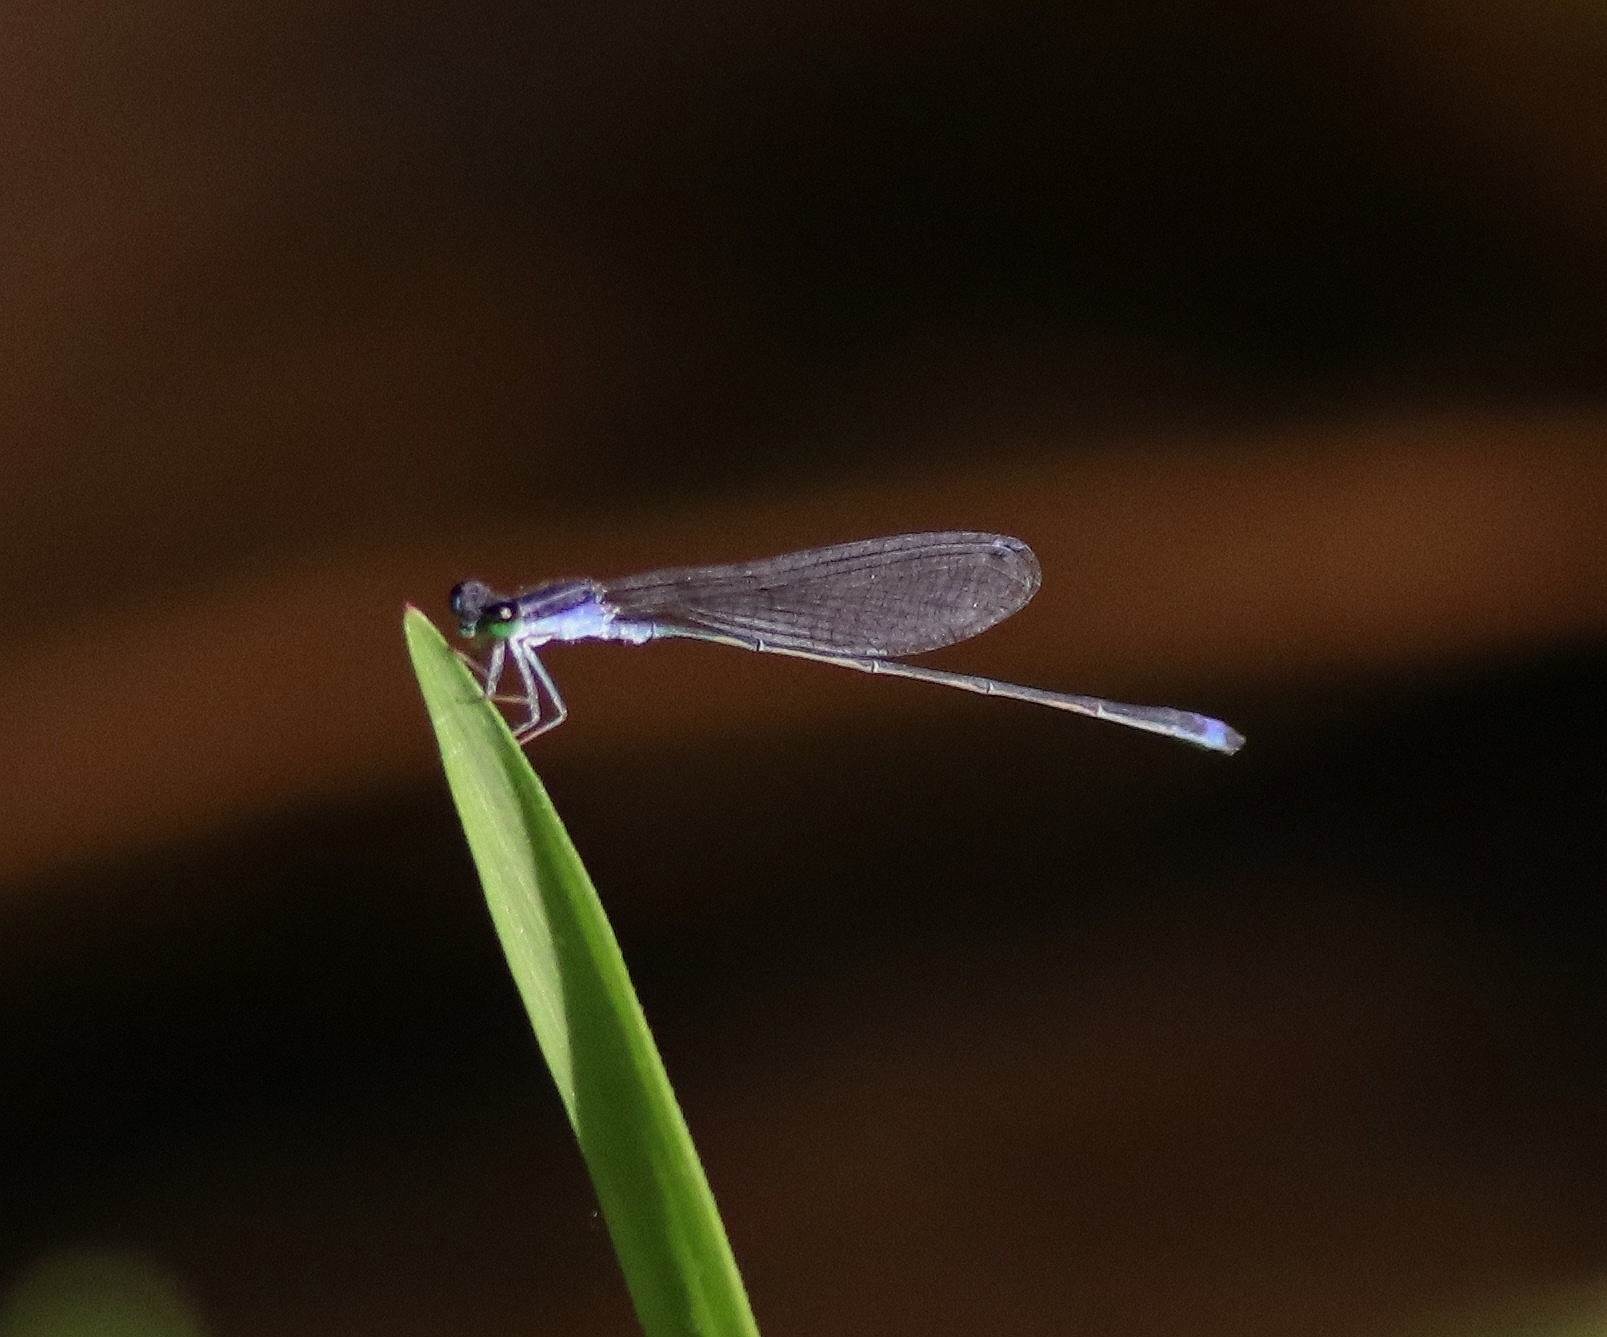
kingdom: Animalia
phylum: Arthropoda
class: Insecta
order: Odonata
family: Coenagrionidae
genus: Aciagrion
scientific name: Aciagrion approximans
